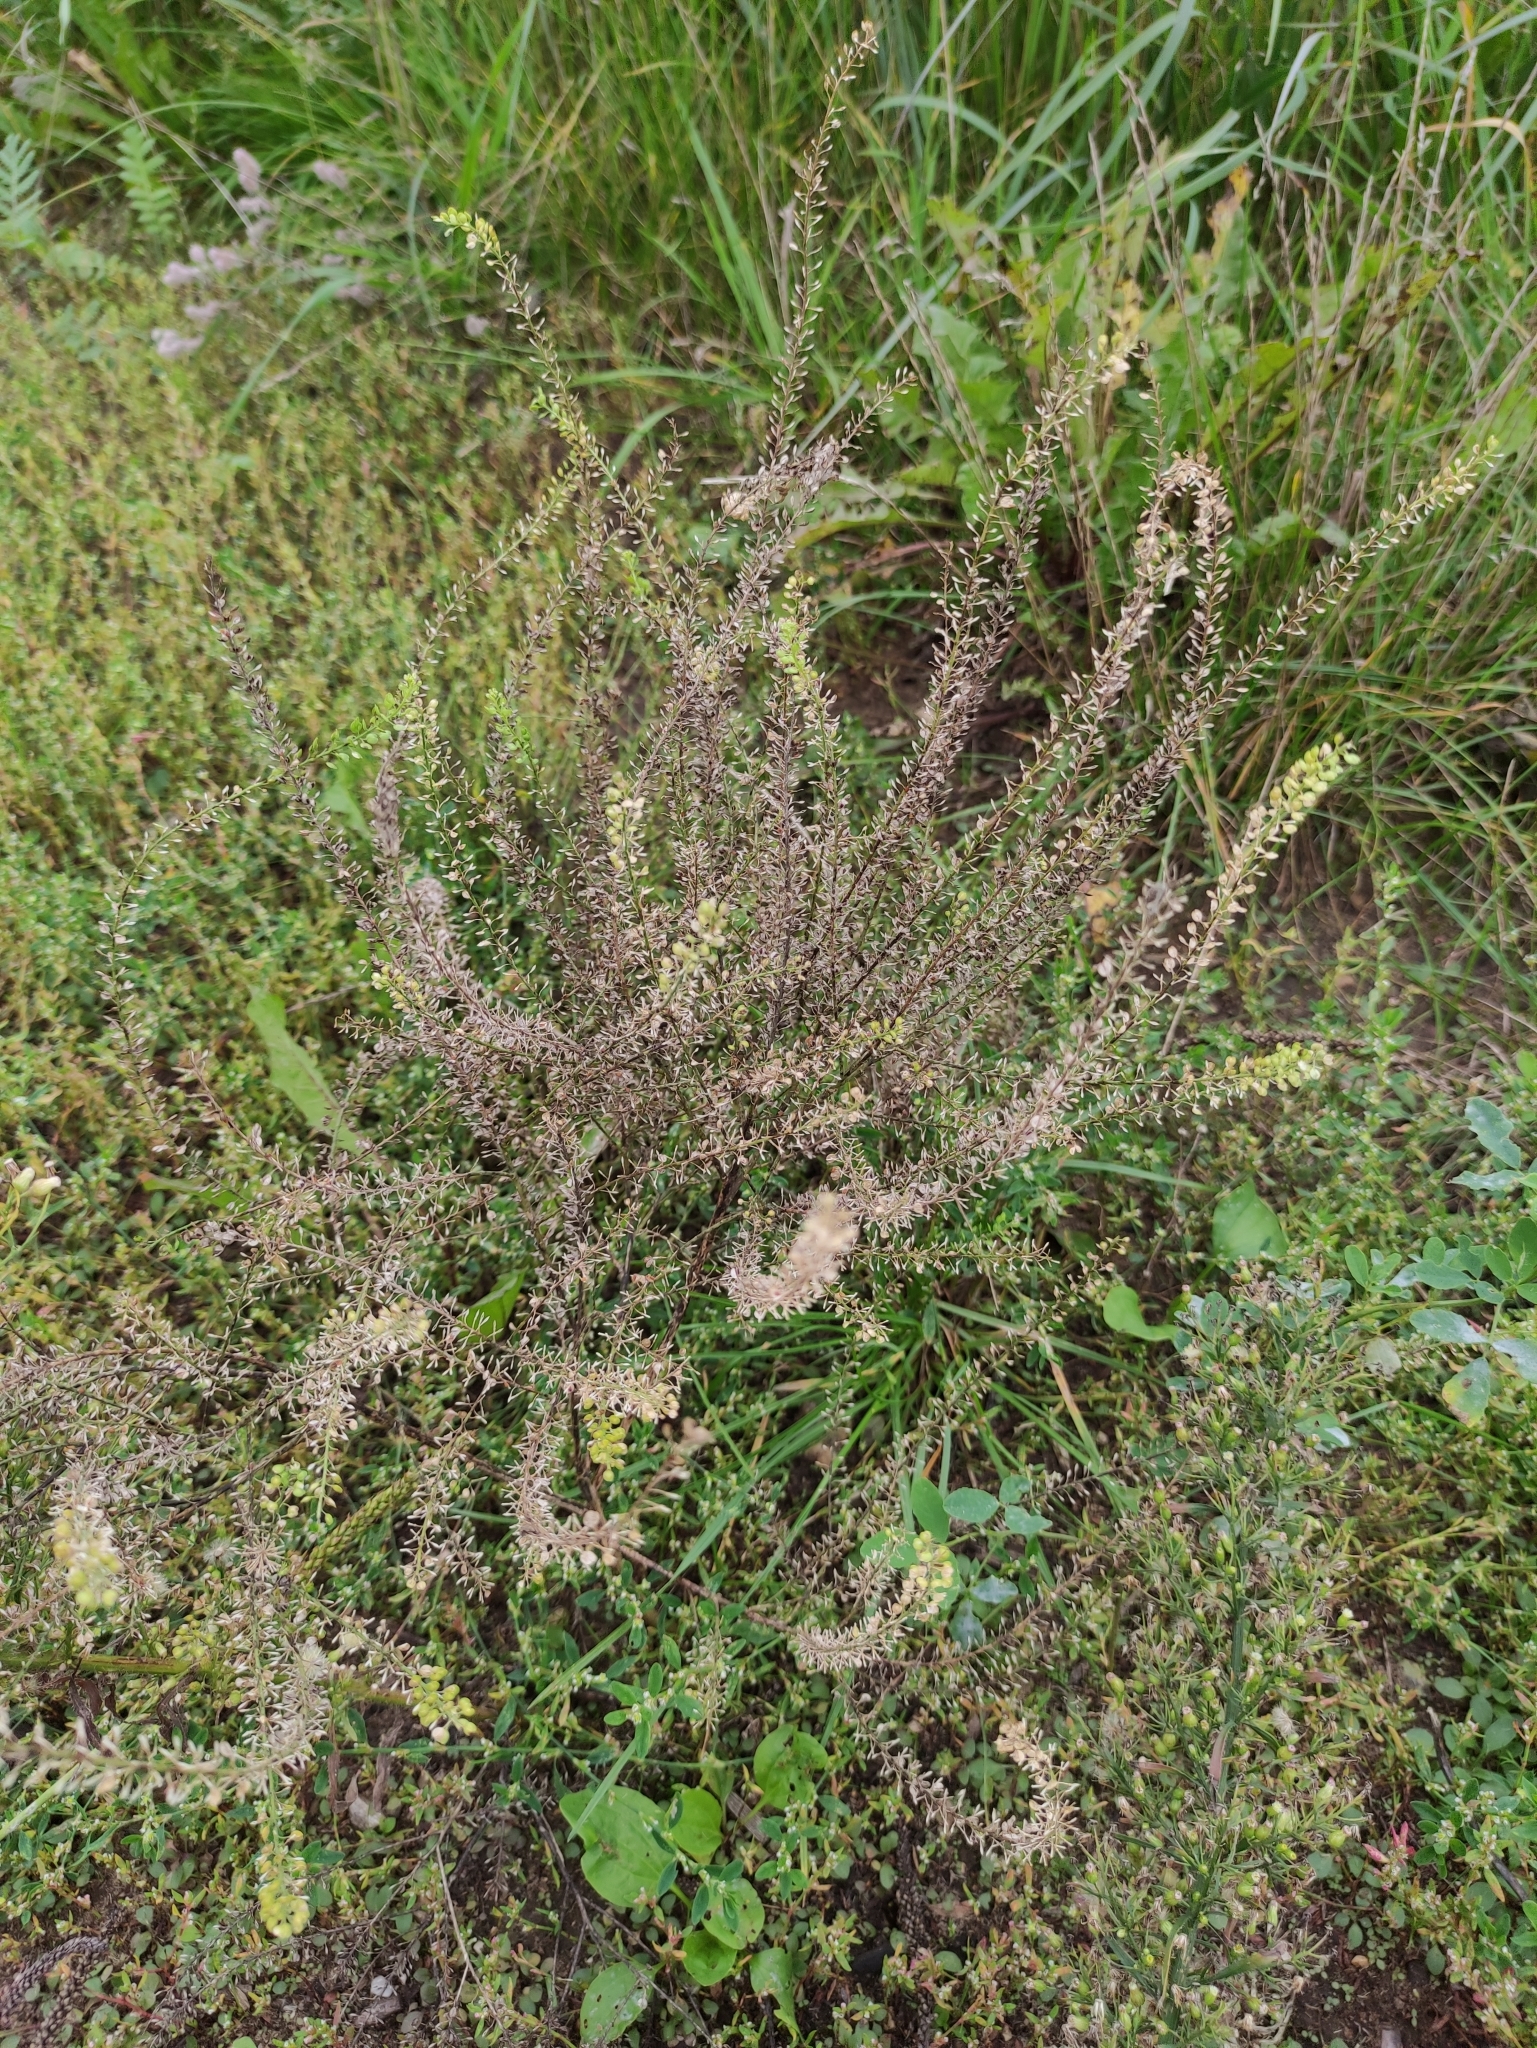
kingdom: Plantae
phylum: Tracheophyta
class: Magnoliopsida
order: Brassicales
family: Brassicaceae
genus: Lepidium
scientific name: Lepidium ruderale
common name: Narrow-leaved pepperwort
